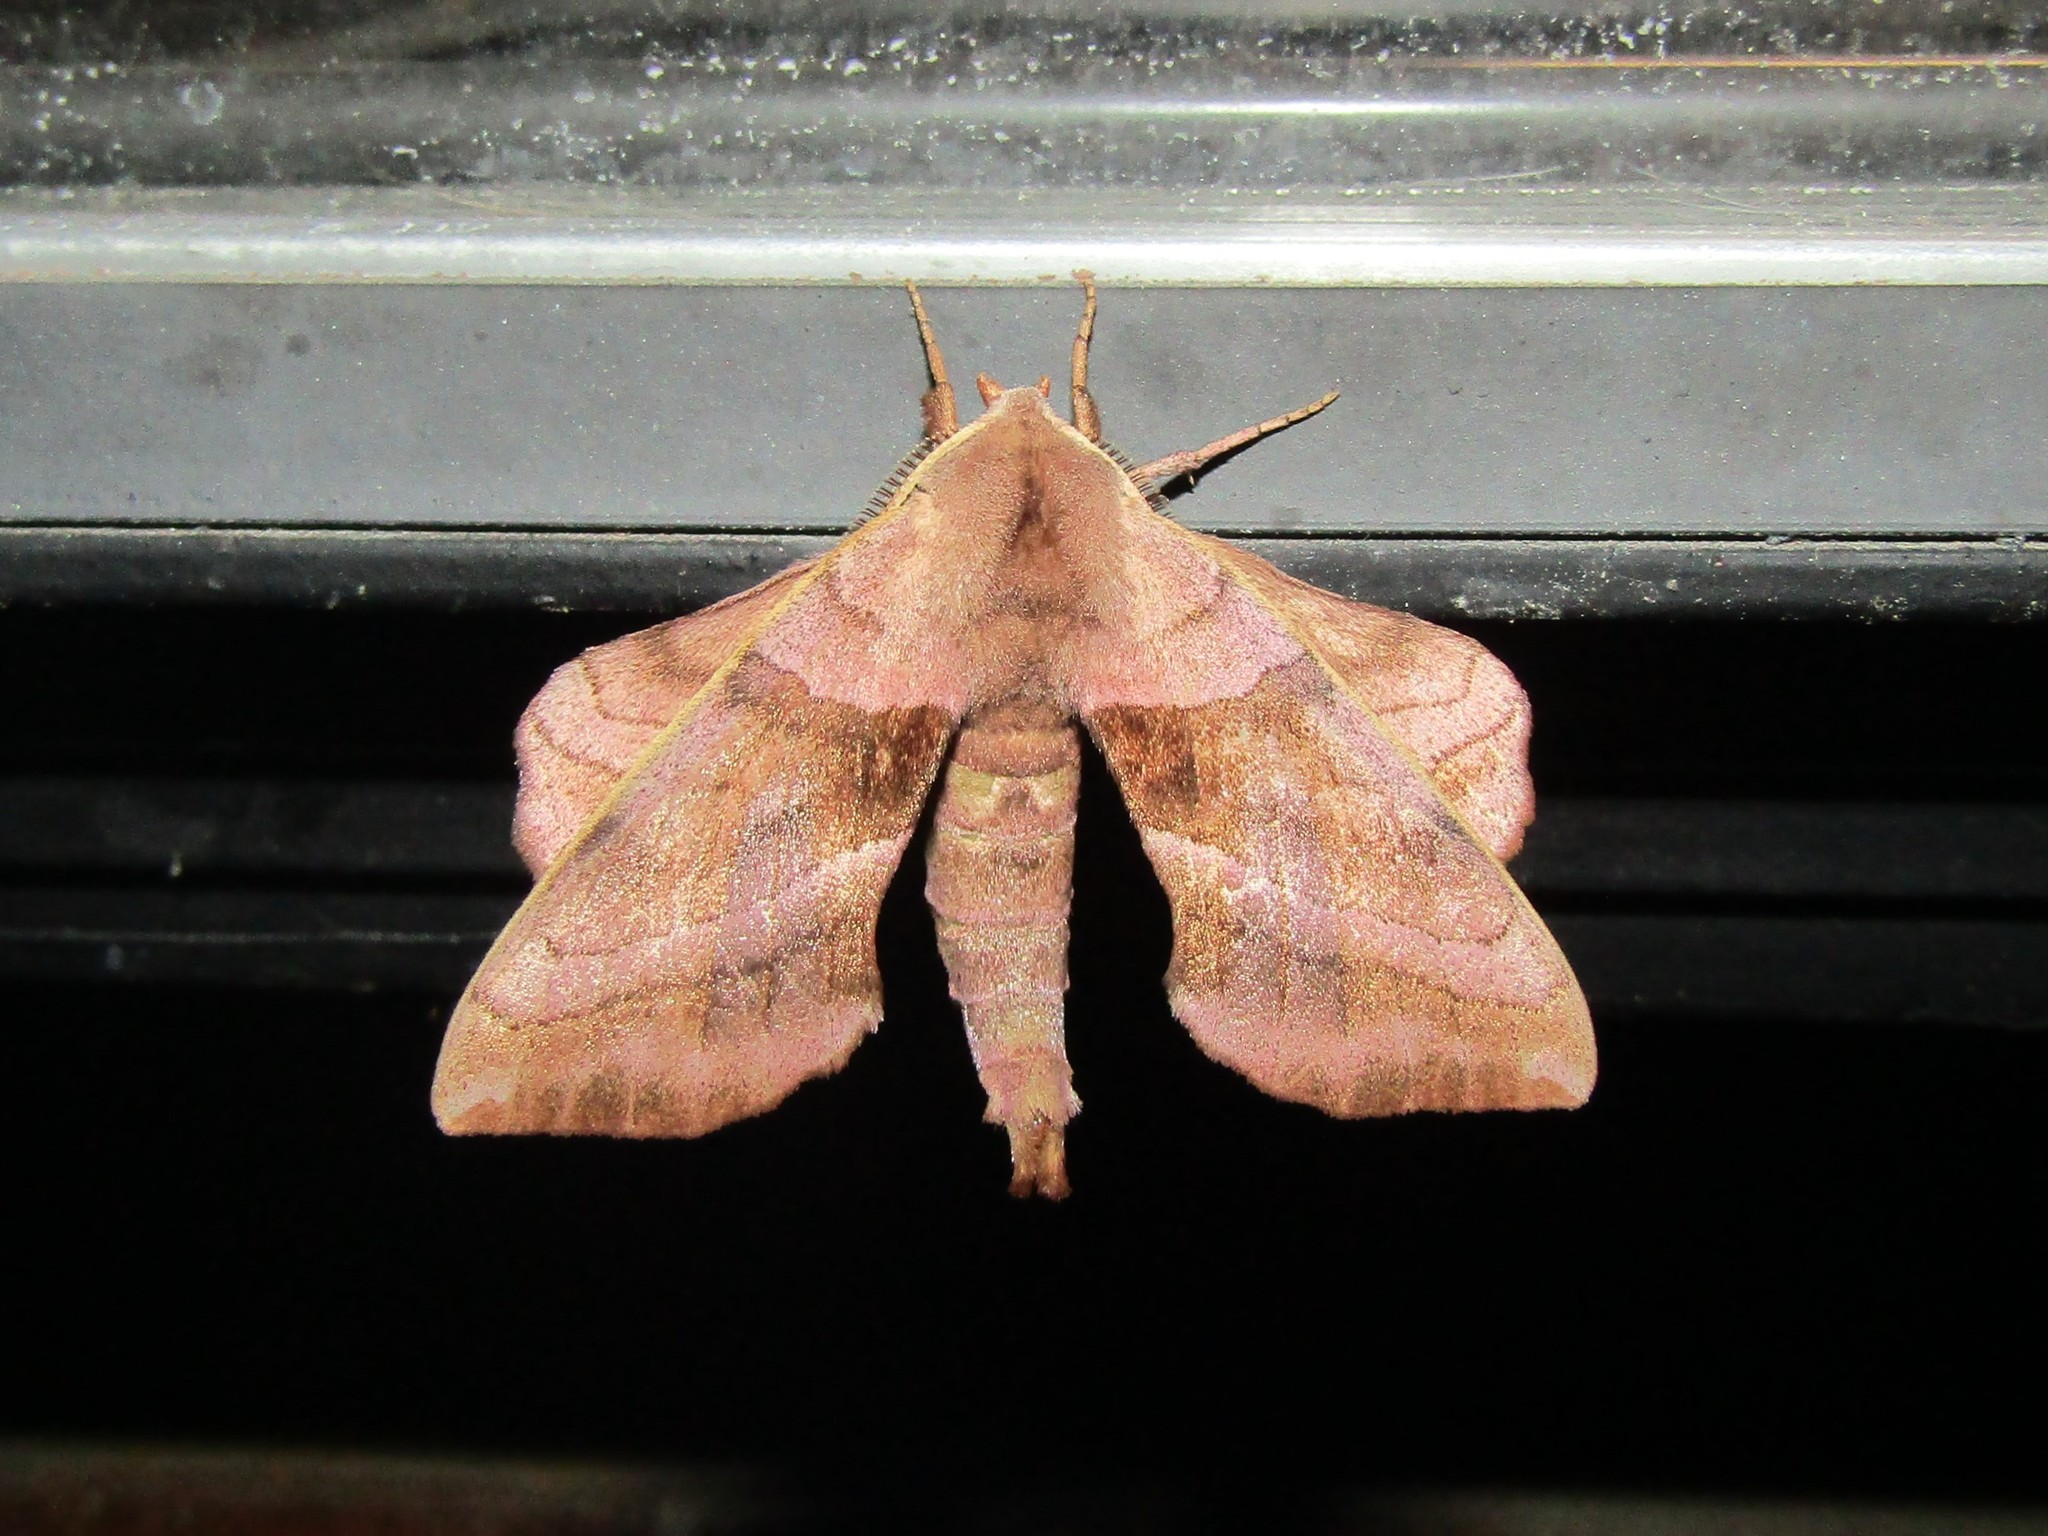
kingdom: Animalia
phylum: Arthropoda
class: Insecta
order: Lepidoptera
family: Sphingidae
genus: Amorpha
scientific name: Amorpha juglandis
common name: Walnut sphinx
